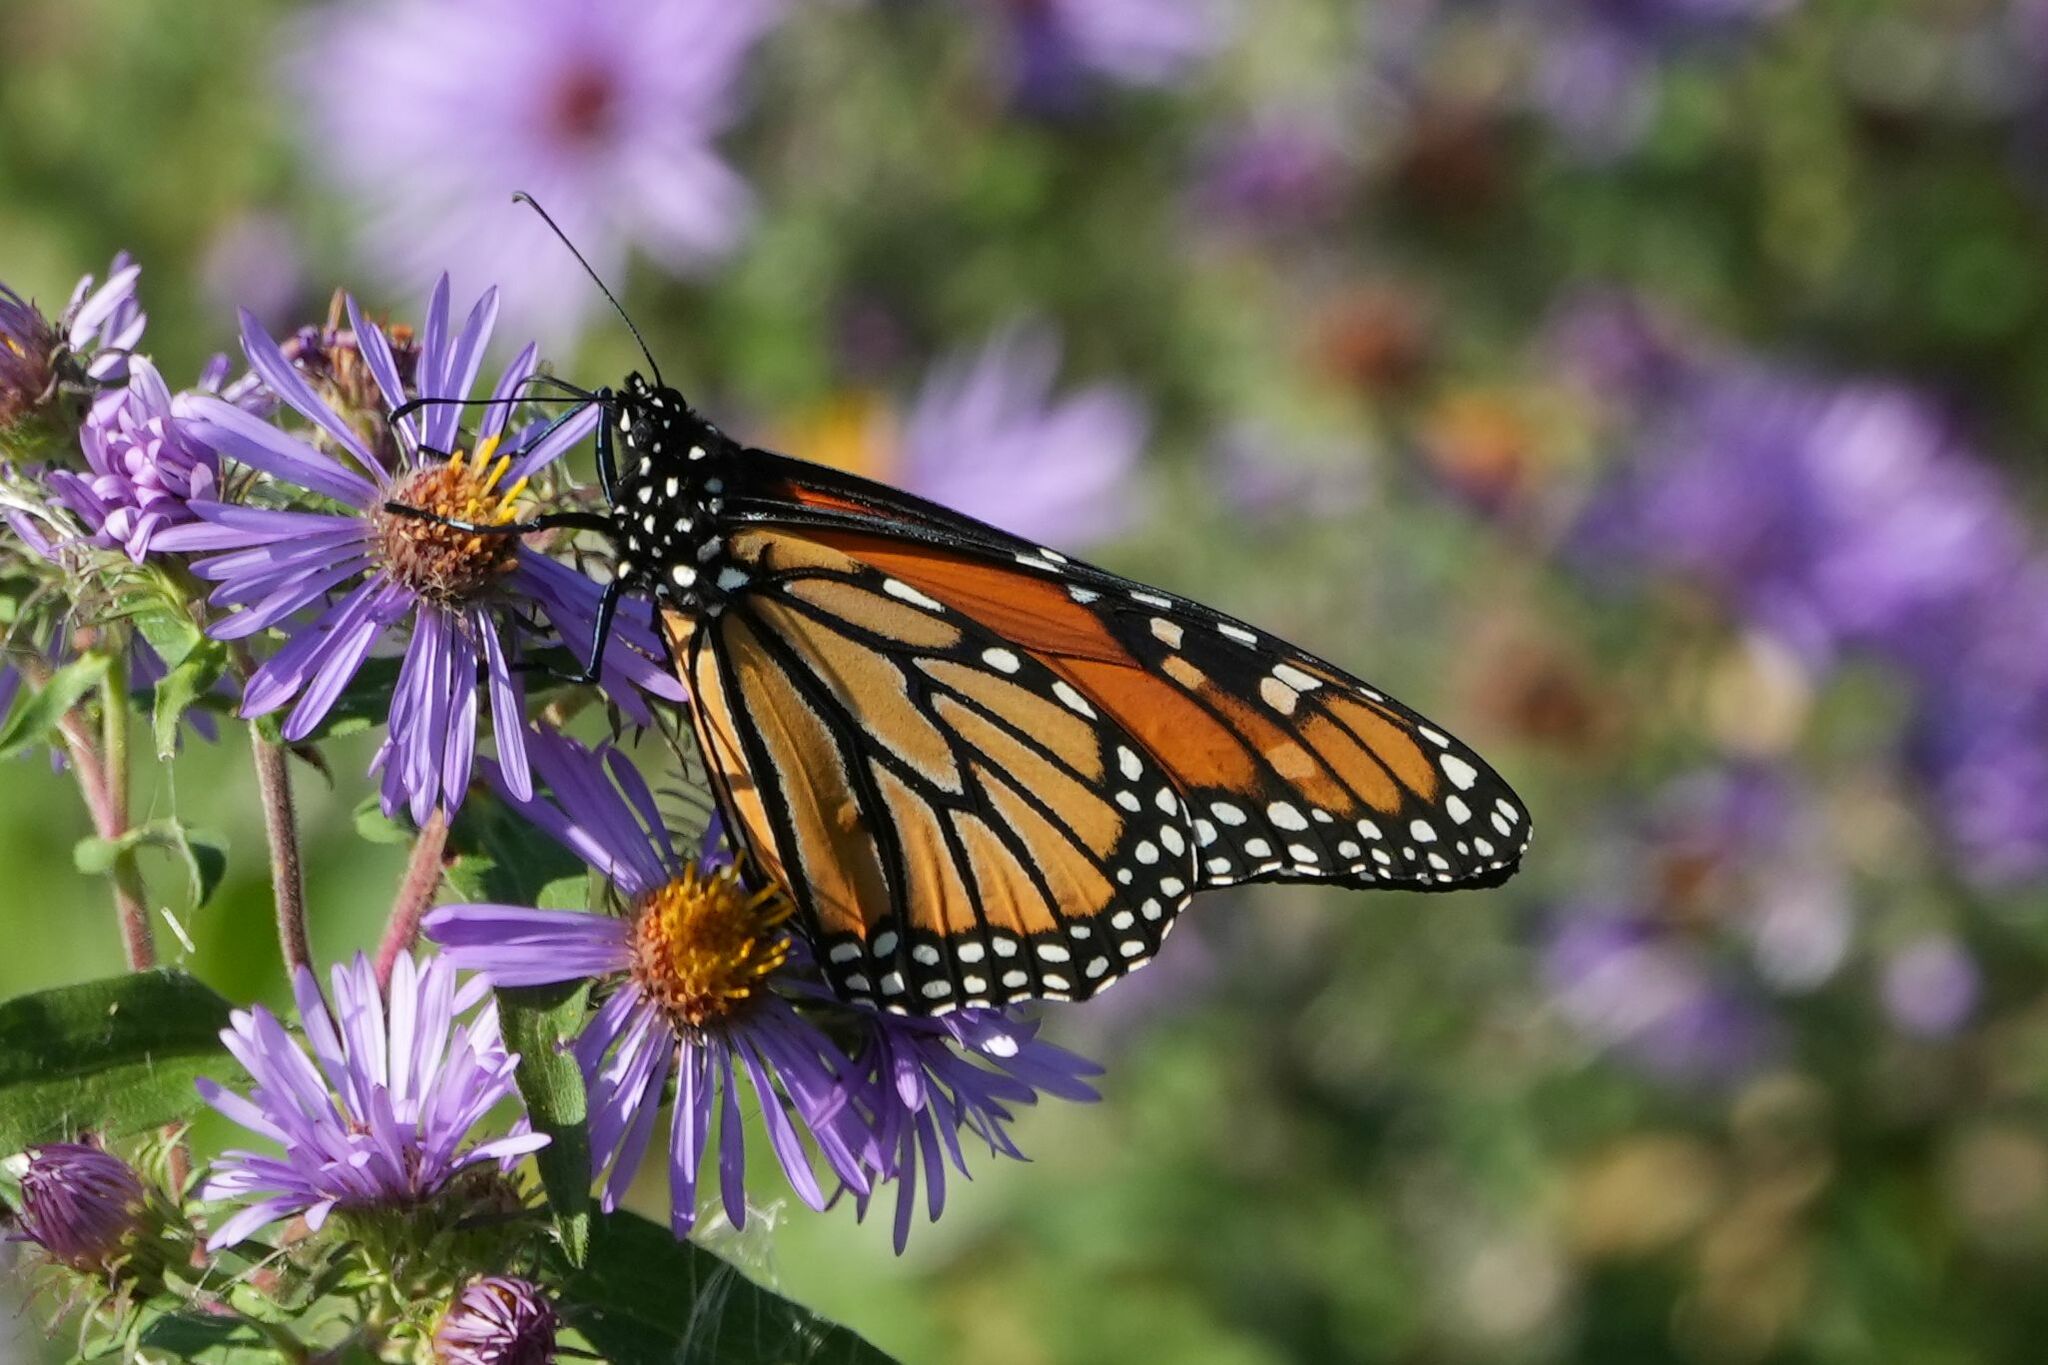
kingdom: Animalia
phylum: Arthropoda
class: Insecta
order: Lepidoptera
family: Nymphalidae
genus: Danaus
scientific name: Danaus plexippus
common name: Monarch
